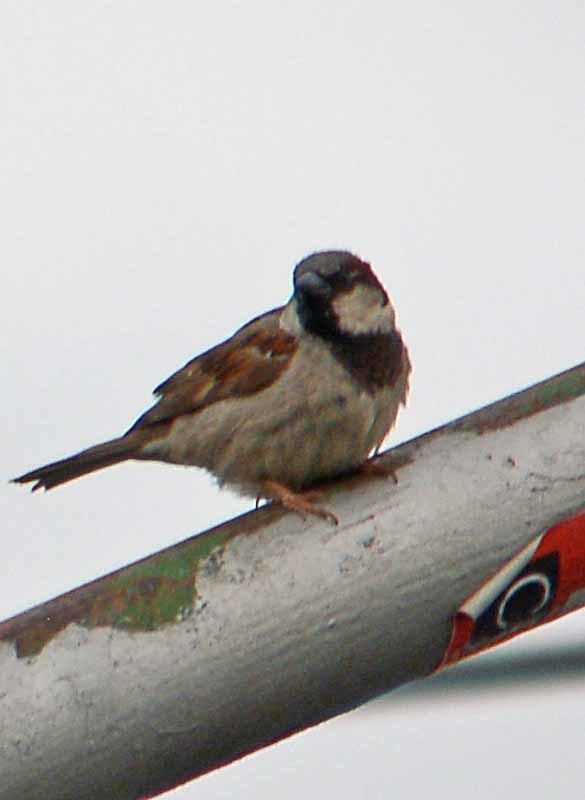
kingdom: Animalia
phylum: Chordata
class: Aves
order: Passeriformes
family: Passeridae
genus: Passer
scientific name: Passer domesticus
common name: House sparrow
